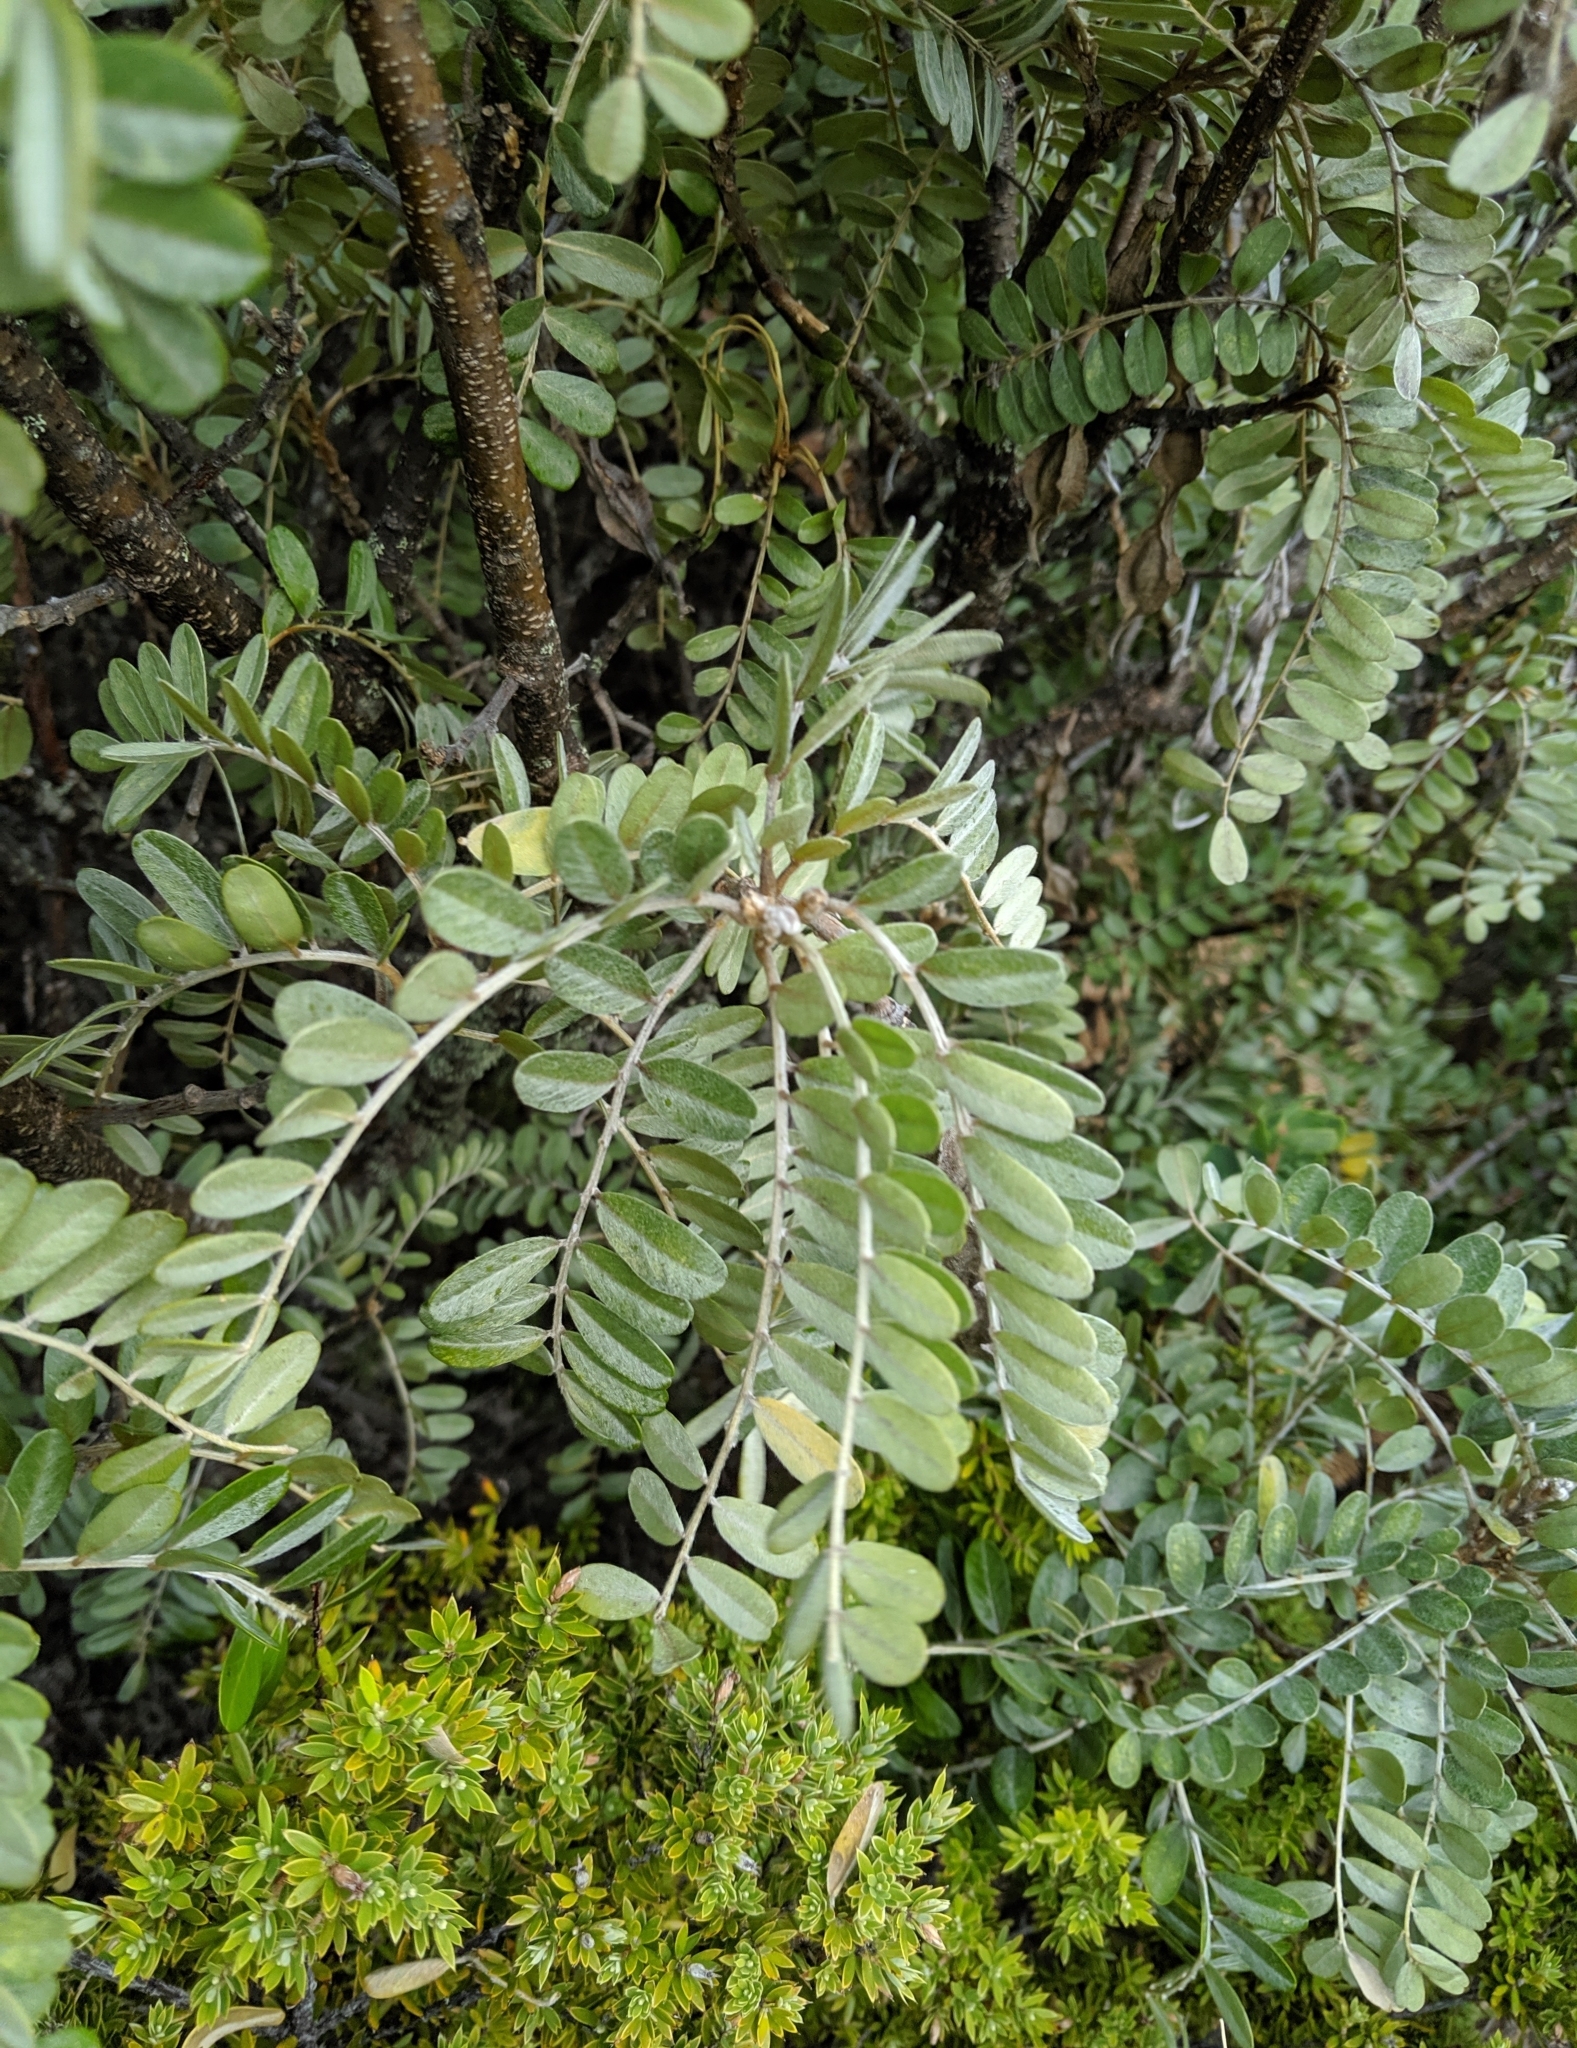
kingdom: Plantae
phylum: Tracheophyta
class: Magnoliopsida
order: Fabales
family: Fabaceae
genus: Sophora
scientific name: Sophora chrysophylla
